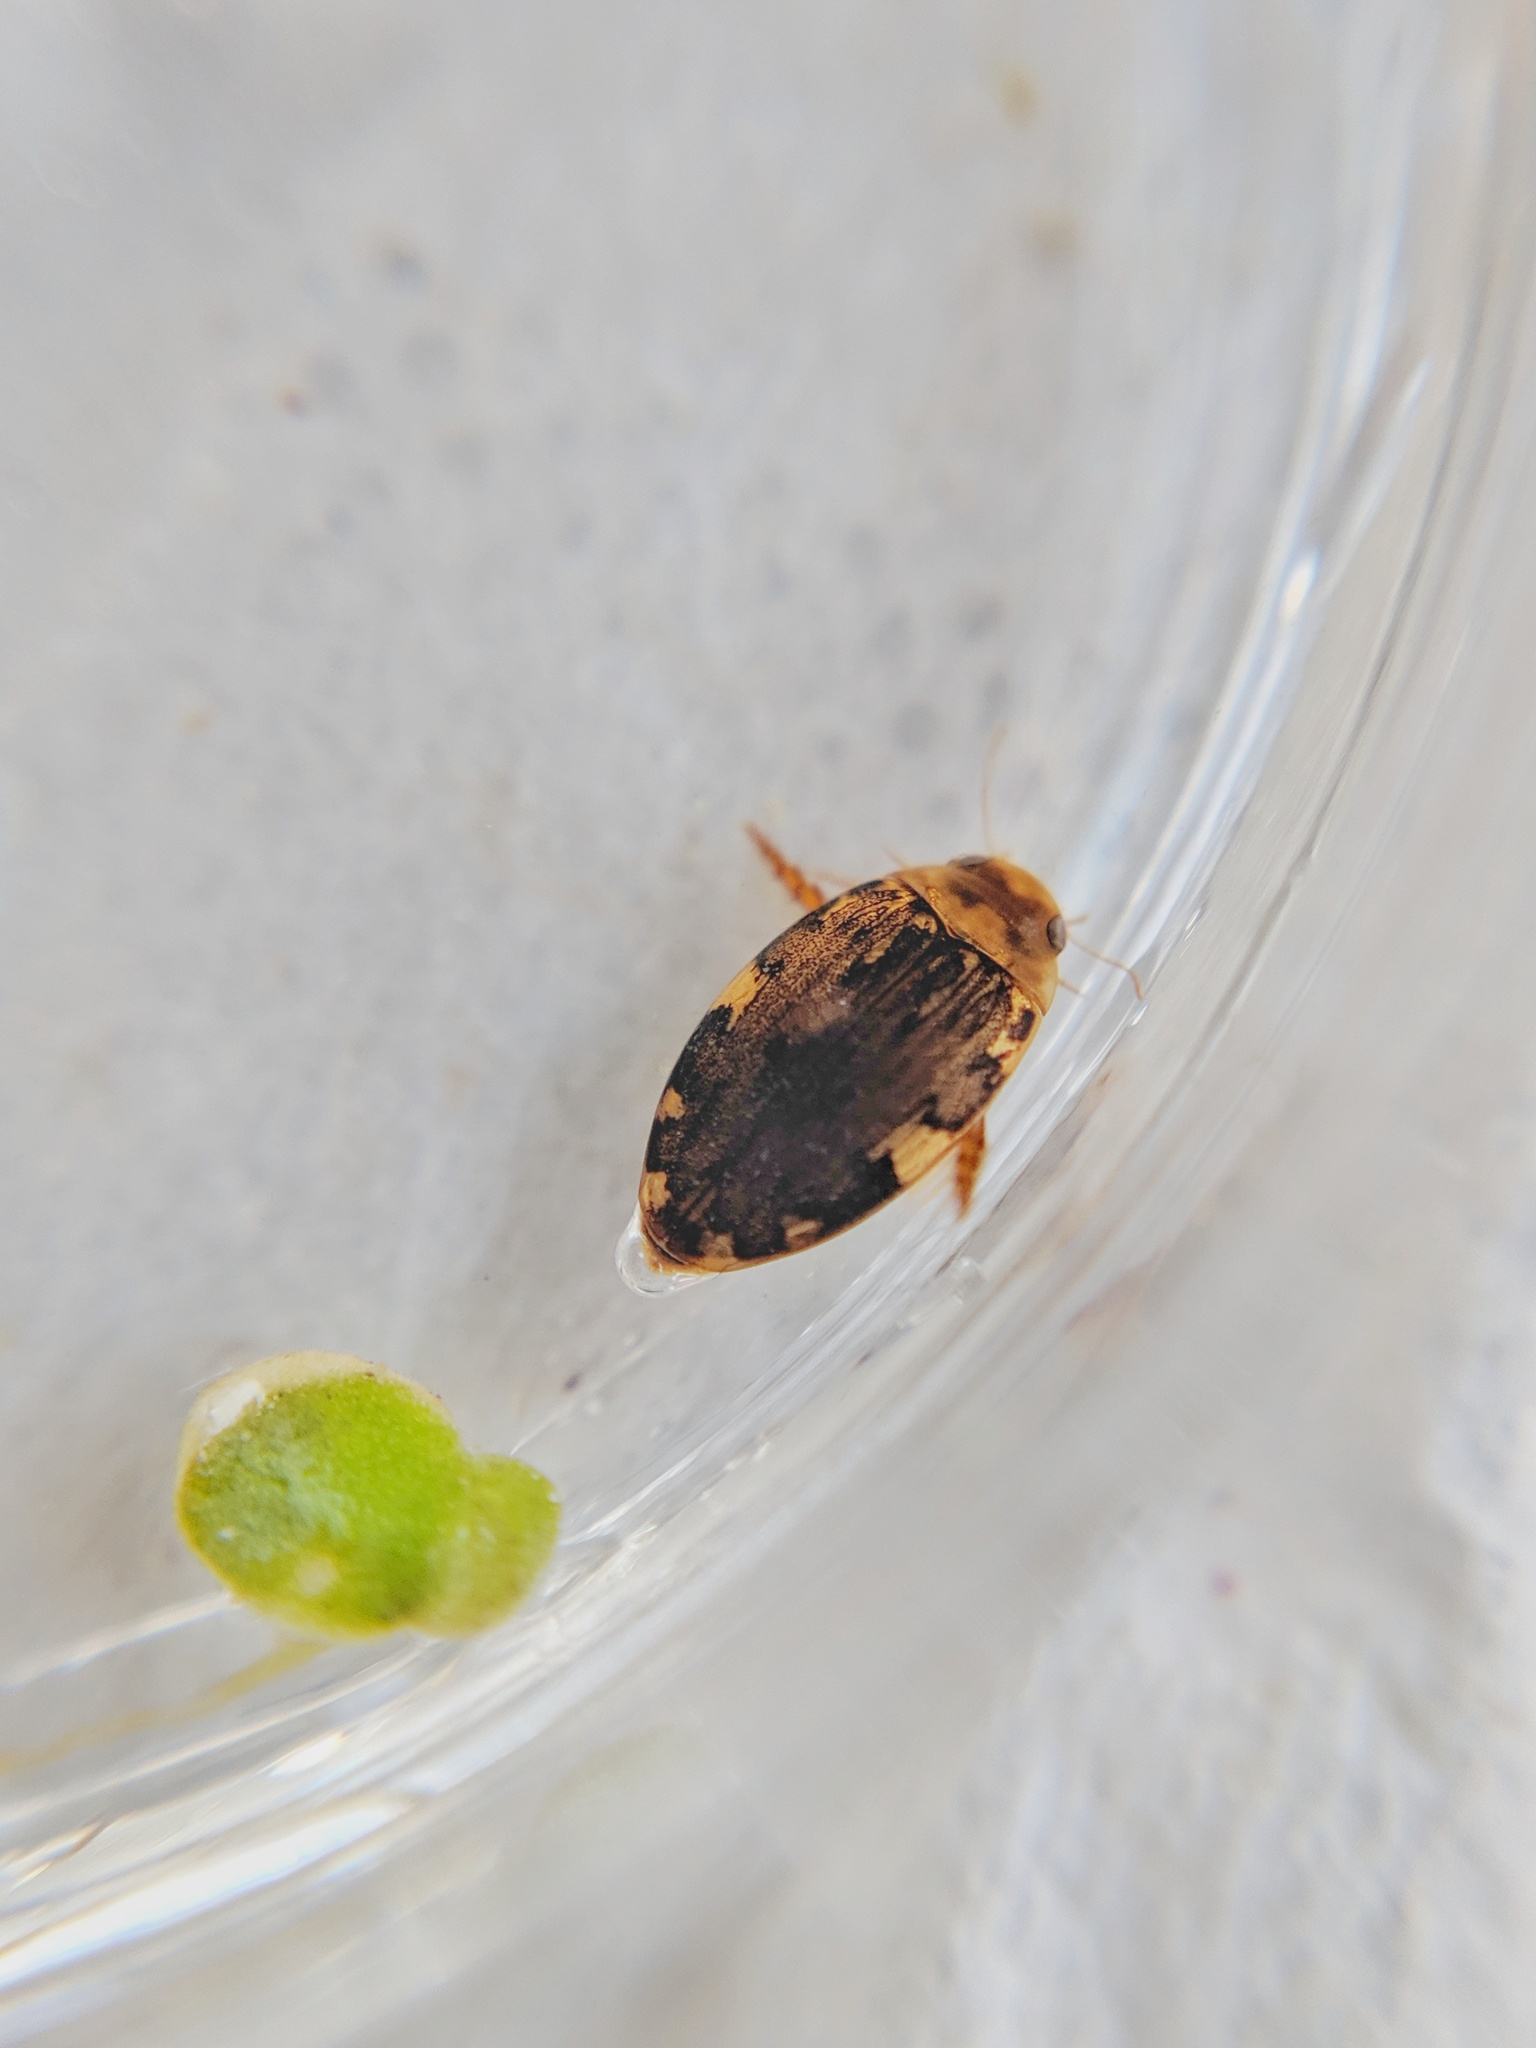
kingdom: Animalia
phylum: Arthropoda
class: Insecta
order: Coleoptera
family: Dytiscidae
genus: Laccophilus
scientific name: Laccophilus maculosus
